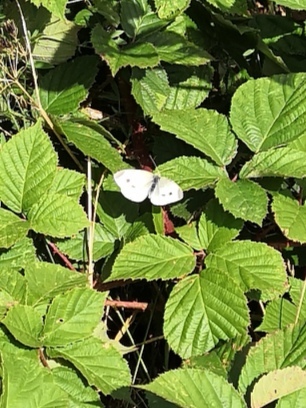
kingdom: Animalia
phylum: Arthropoda
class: Insecta
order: Lepidoptera
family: Pieridae
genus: Pieris
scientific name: Pieris rapae
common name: Small white
